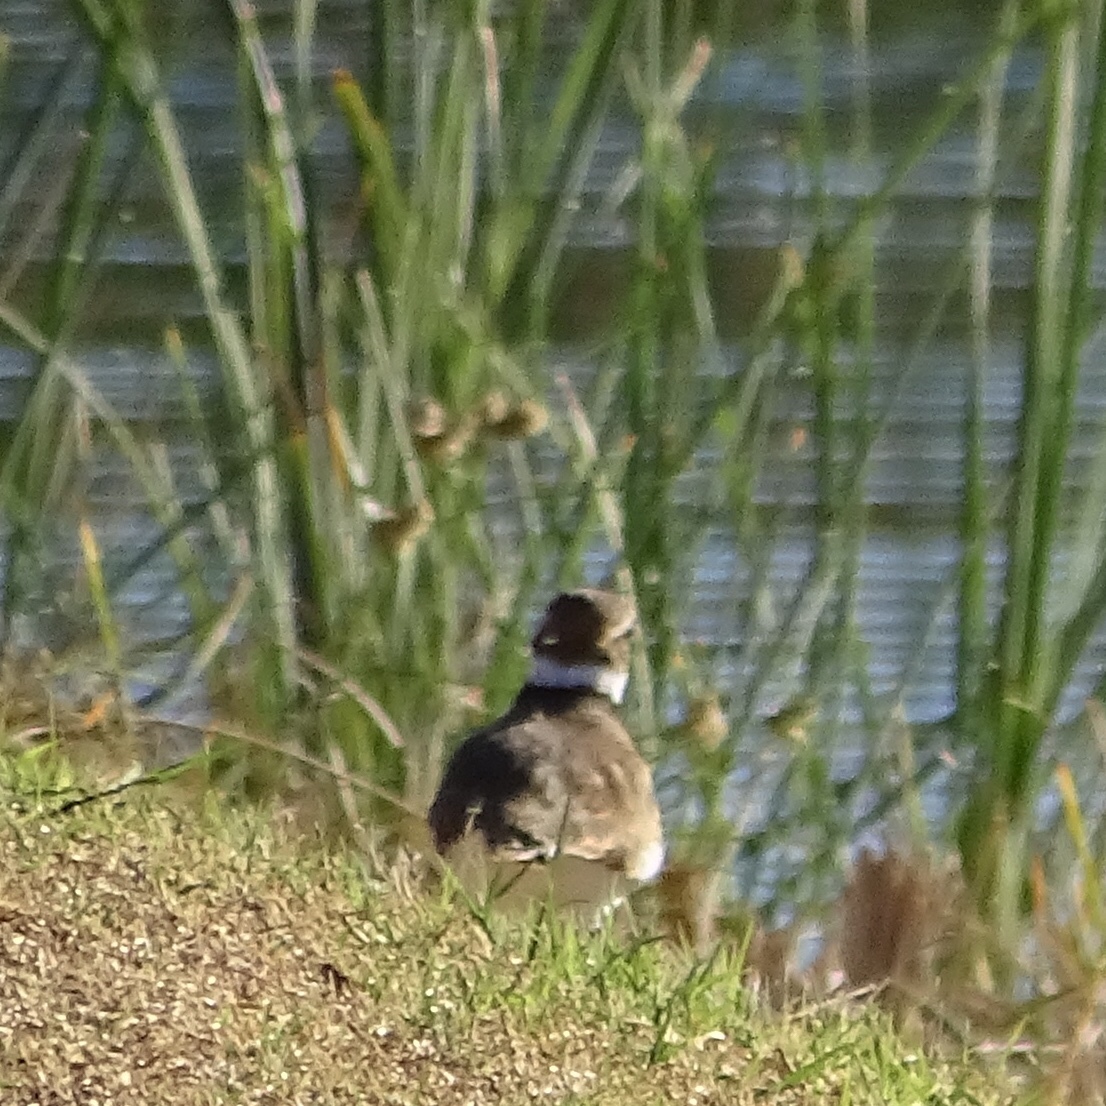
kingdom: Animalia
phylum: Chordata
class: Aves
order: Charadriiformes
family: Charadriidae
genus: Charadrius
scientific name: Charadrius vociferus
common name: Killdeer
